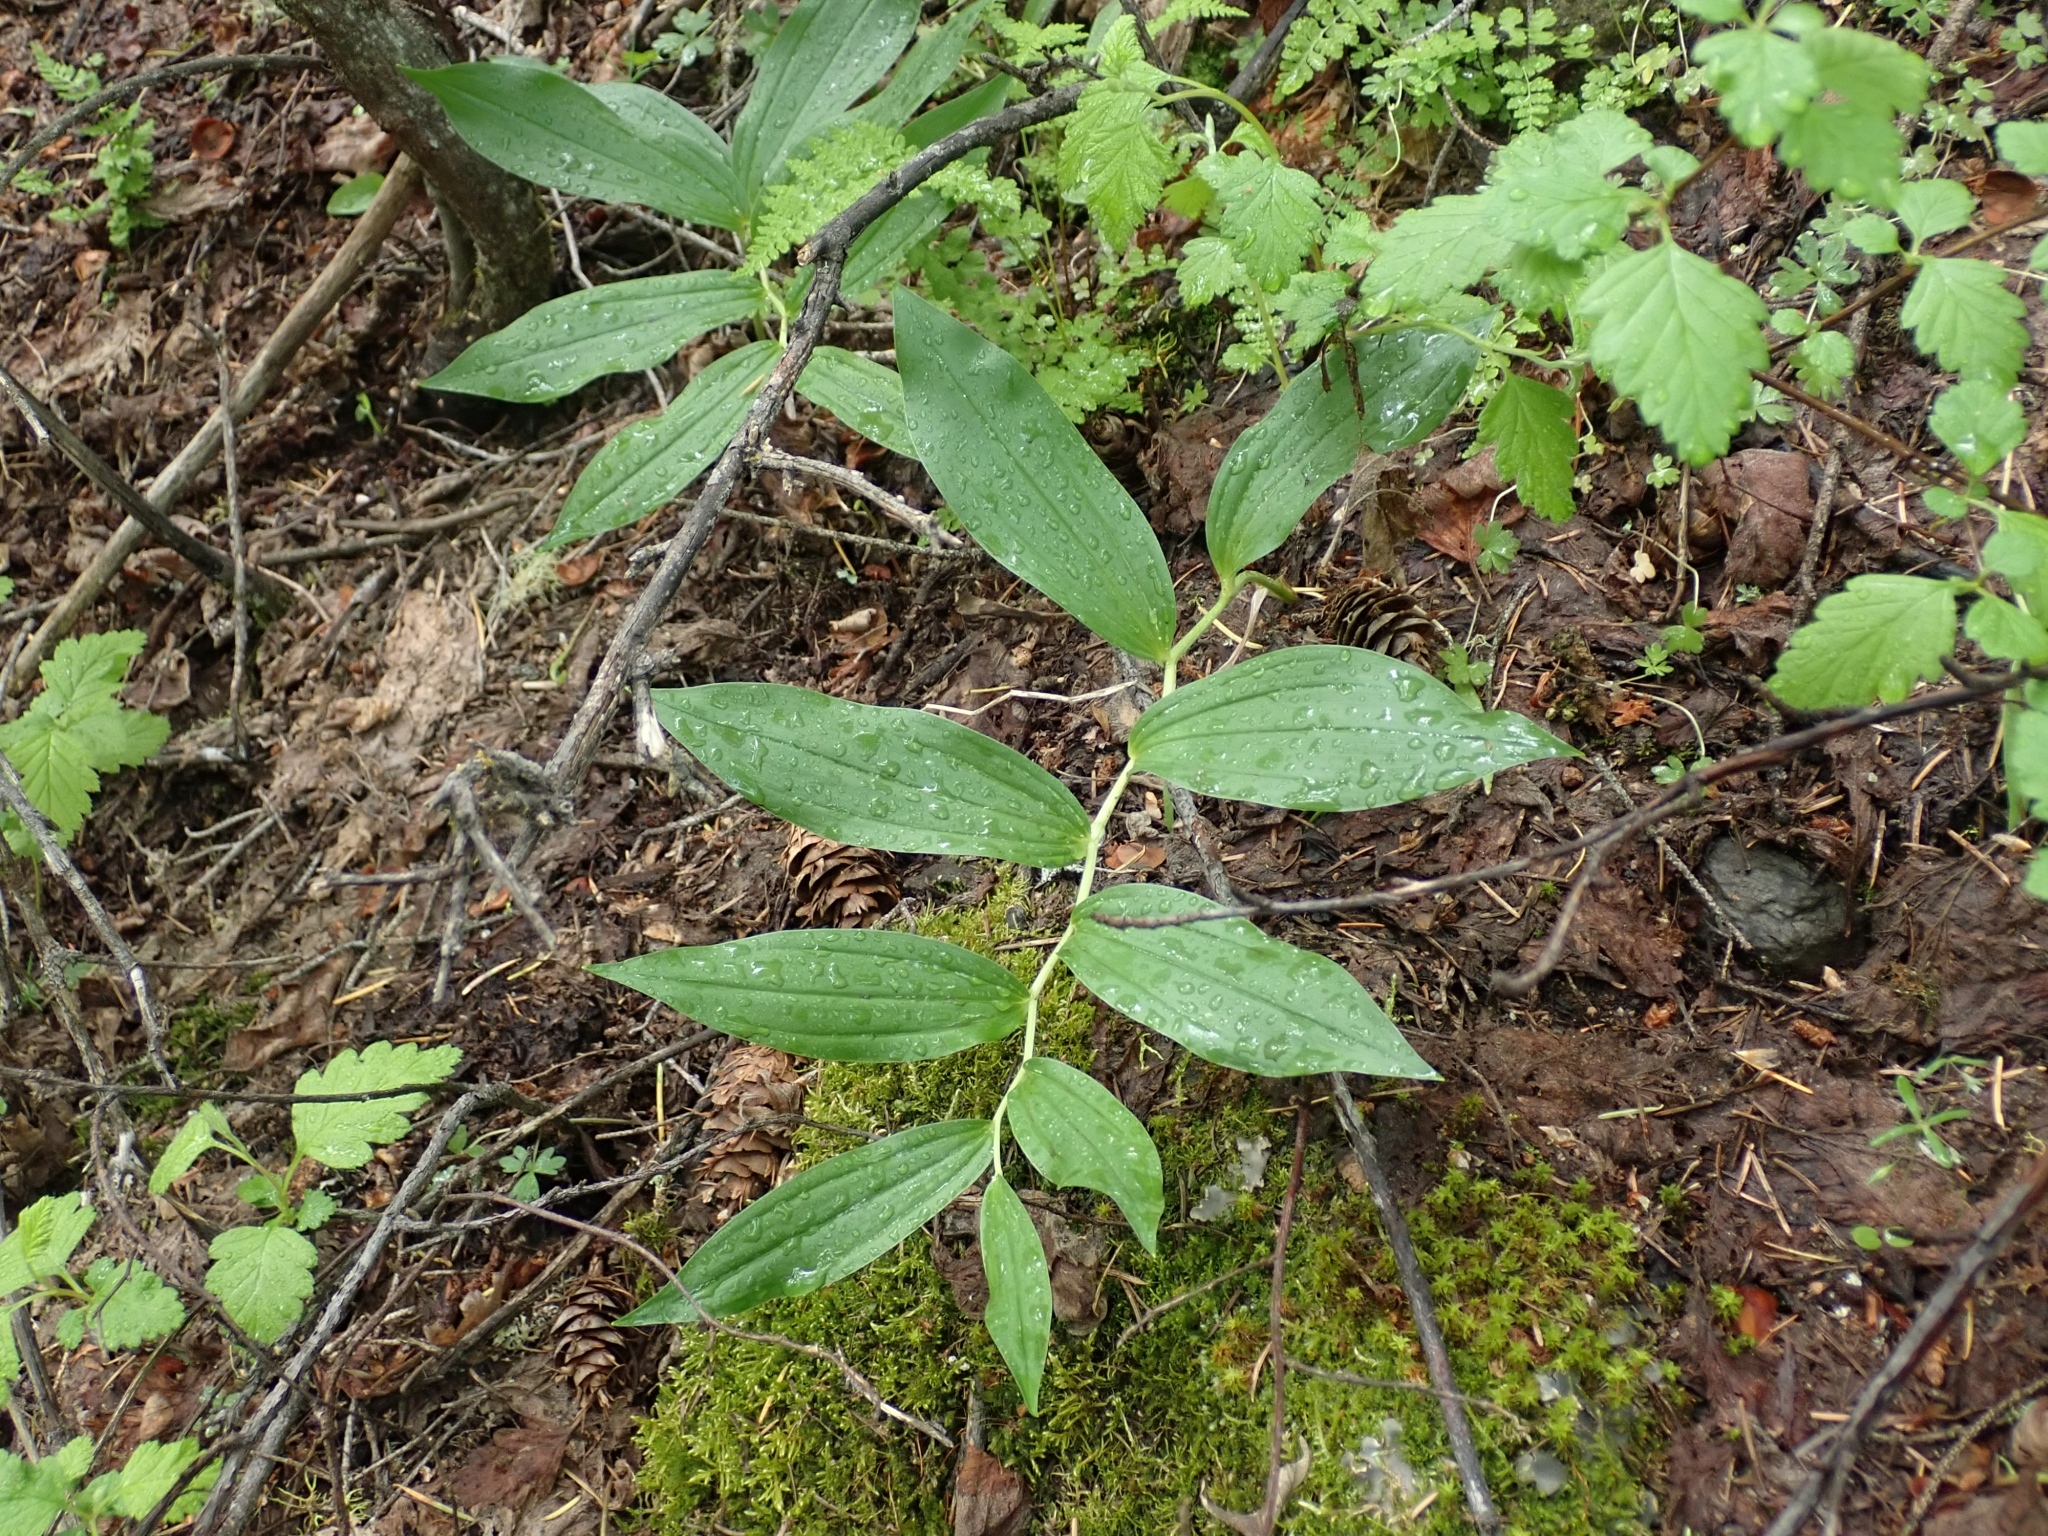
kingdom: Plantae
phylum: Tracheophyta
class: Liliopsida
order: Asparagales
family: Asparagaceae
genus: Maianthemum
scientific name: Maianthemum racemosum
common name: False spikenard
